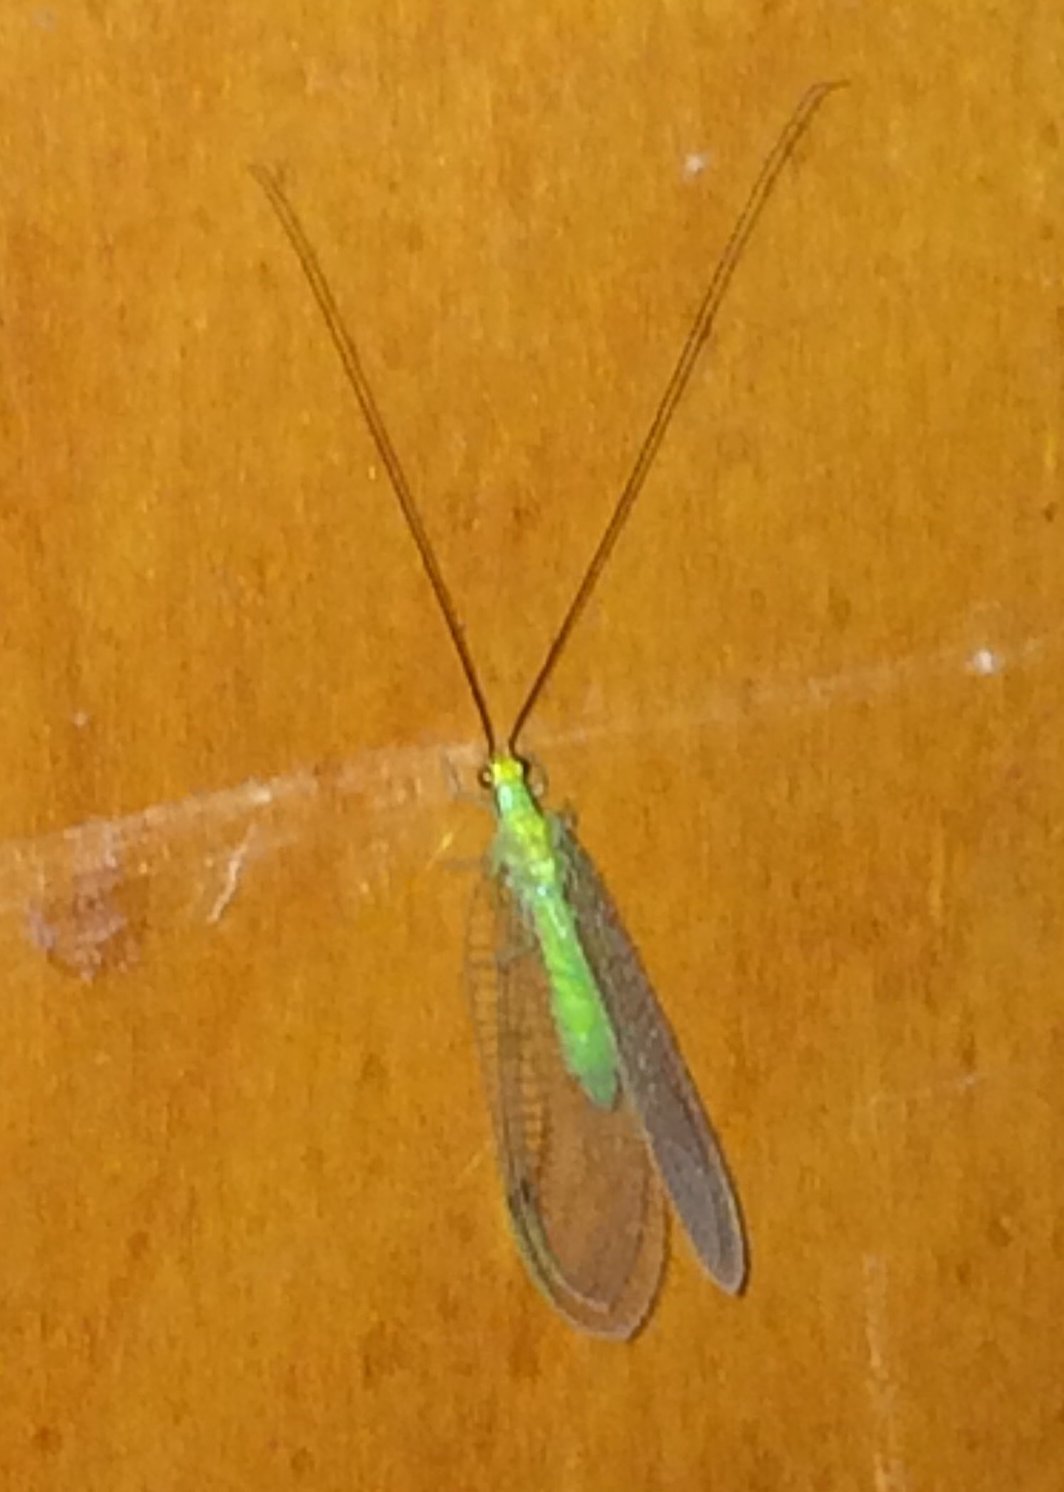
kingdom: Animalia
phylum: Arthropoda
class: Insecta
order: Neuroptera
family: Chrysopidae
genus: Leucochrysa
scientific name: Leucochrysa pavida
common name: Lichen-carrying green lacewing
